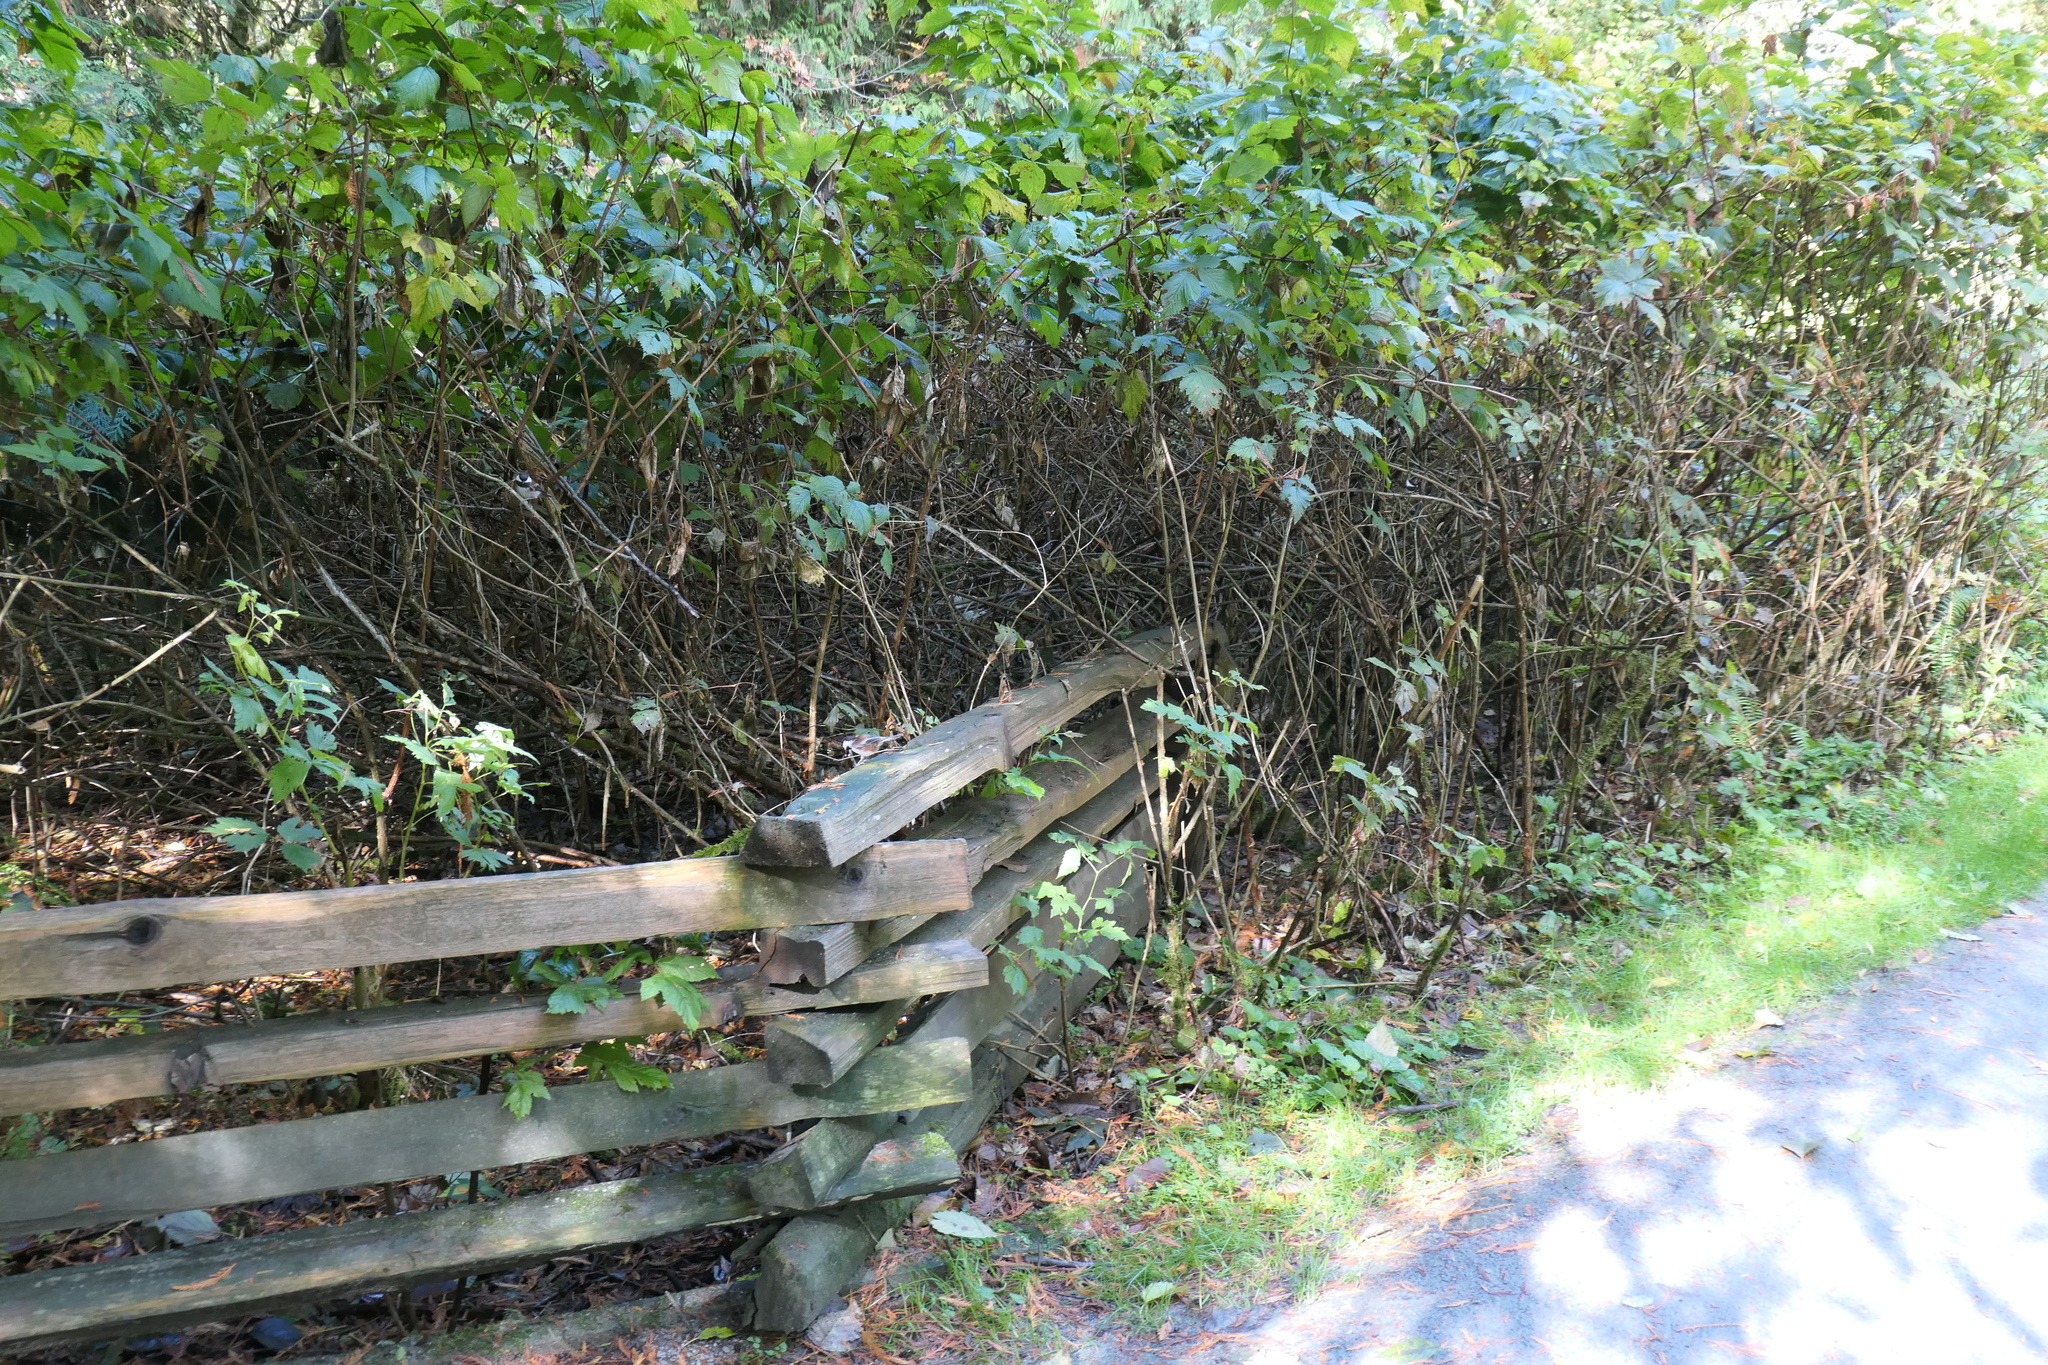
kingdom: Animalia
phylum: Chordata
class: Aves
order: Passeriformes
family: Paridae
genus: Poecile
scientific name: Poecile rufescens
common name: Chestnut-backed chickadee
